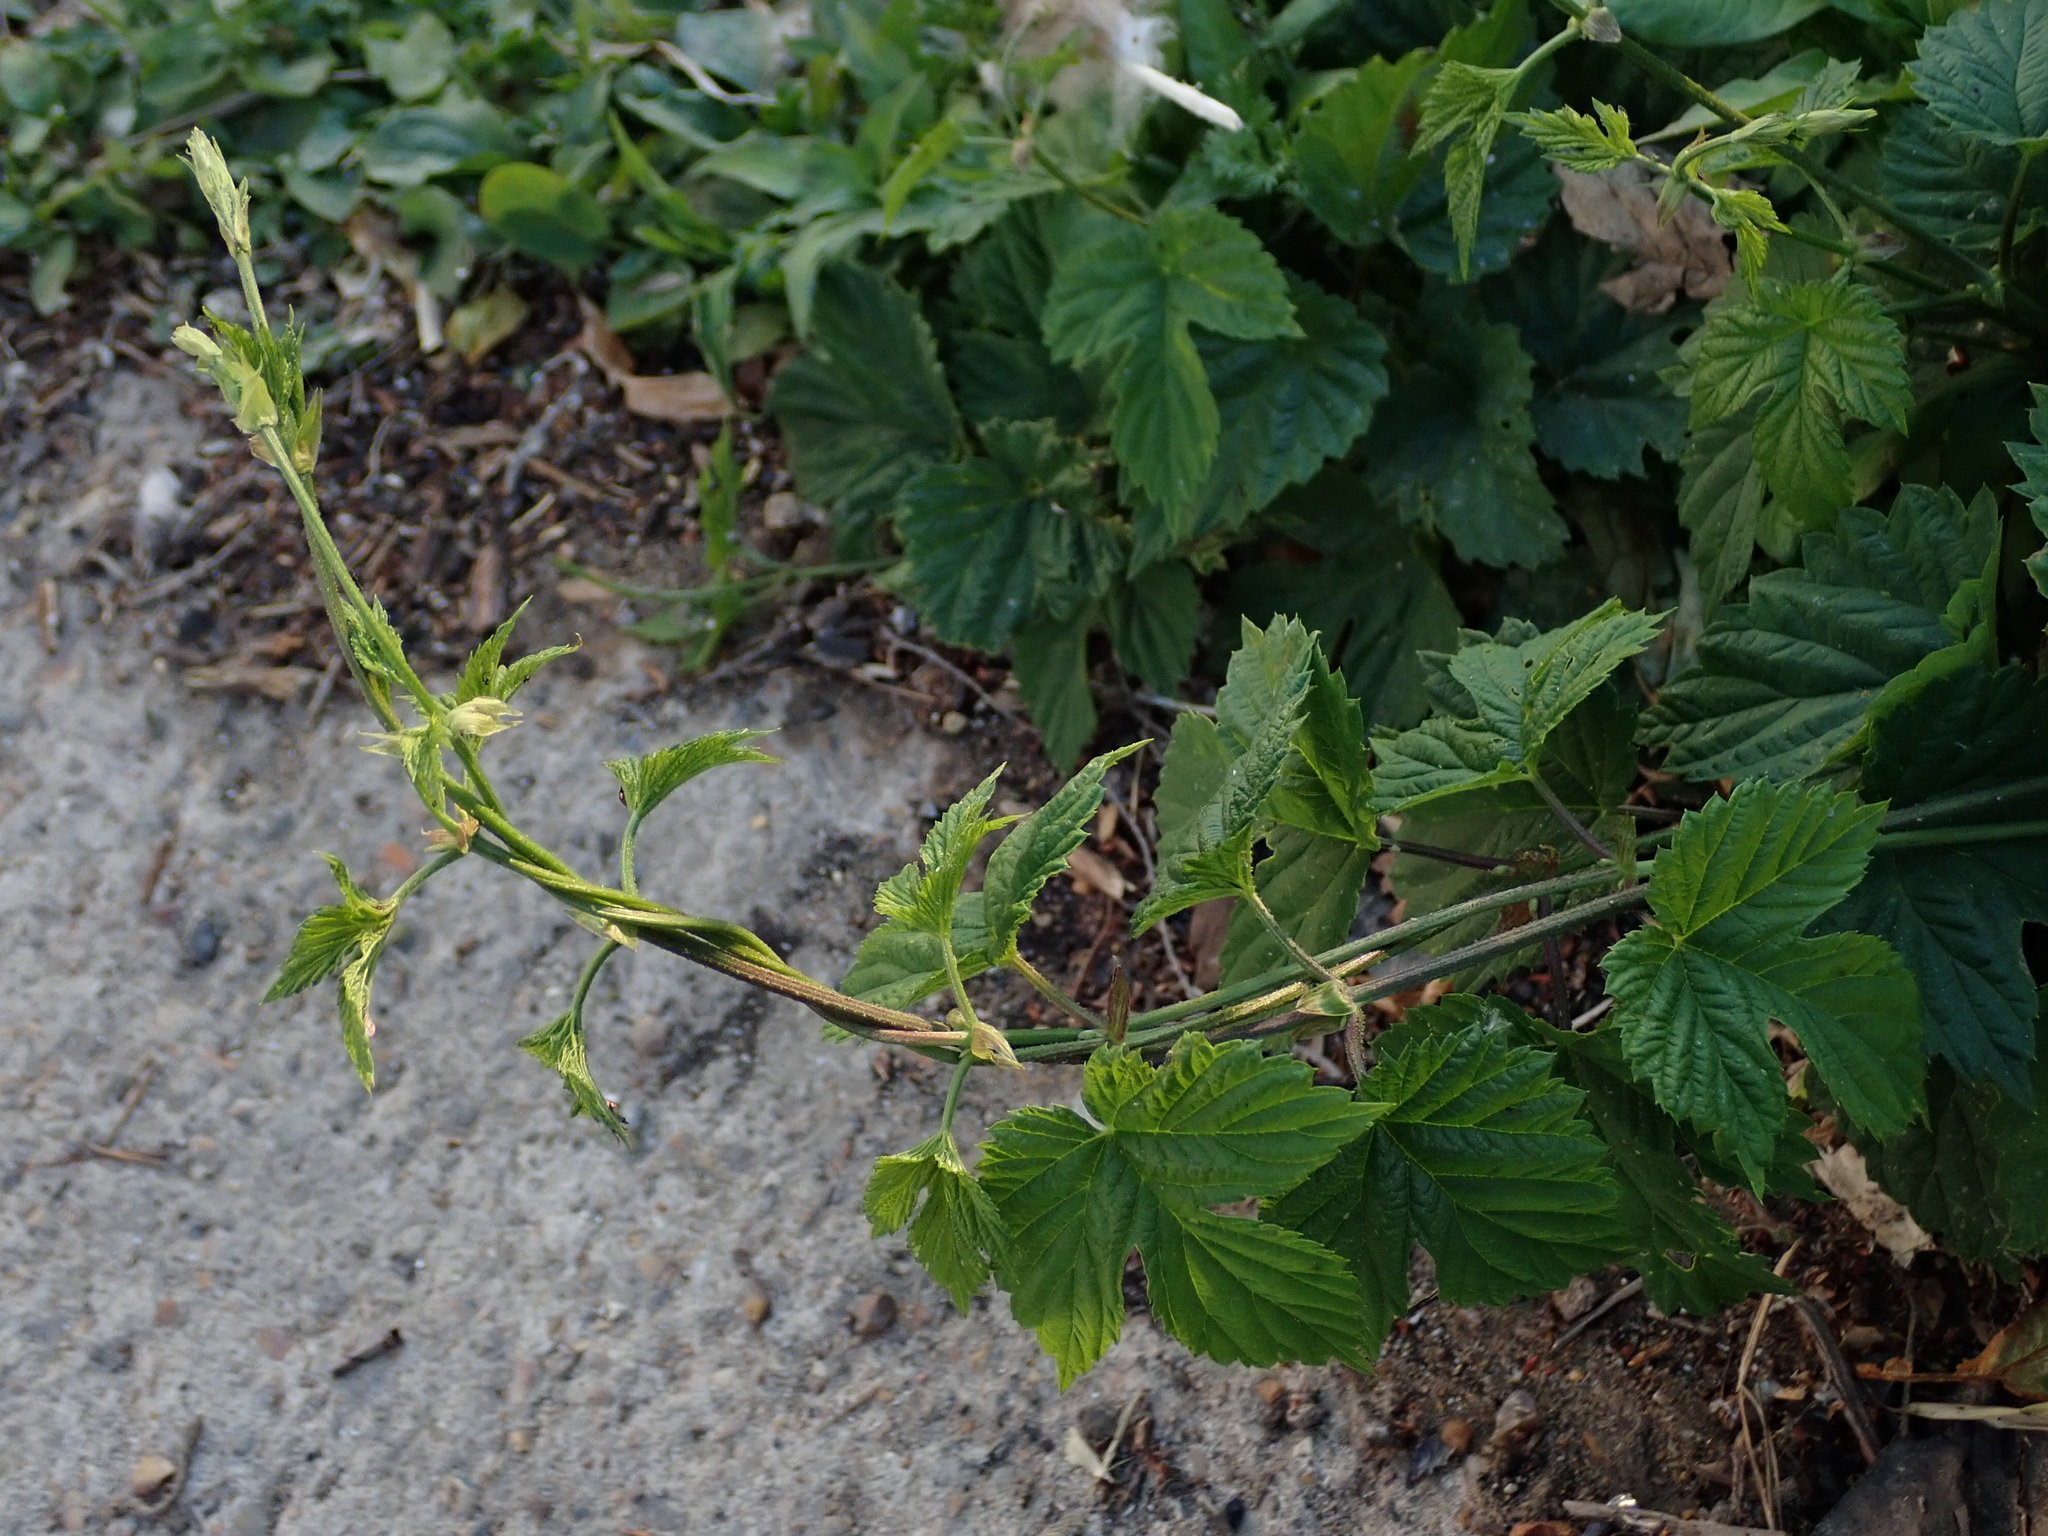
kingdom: Plantae
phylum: Tracheophyta
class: Magnoliopsida
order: Rosales
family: Cannabaceae
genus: Humulus
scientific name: Humulus lupulus
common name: Hop
